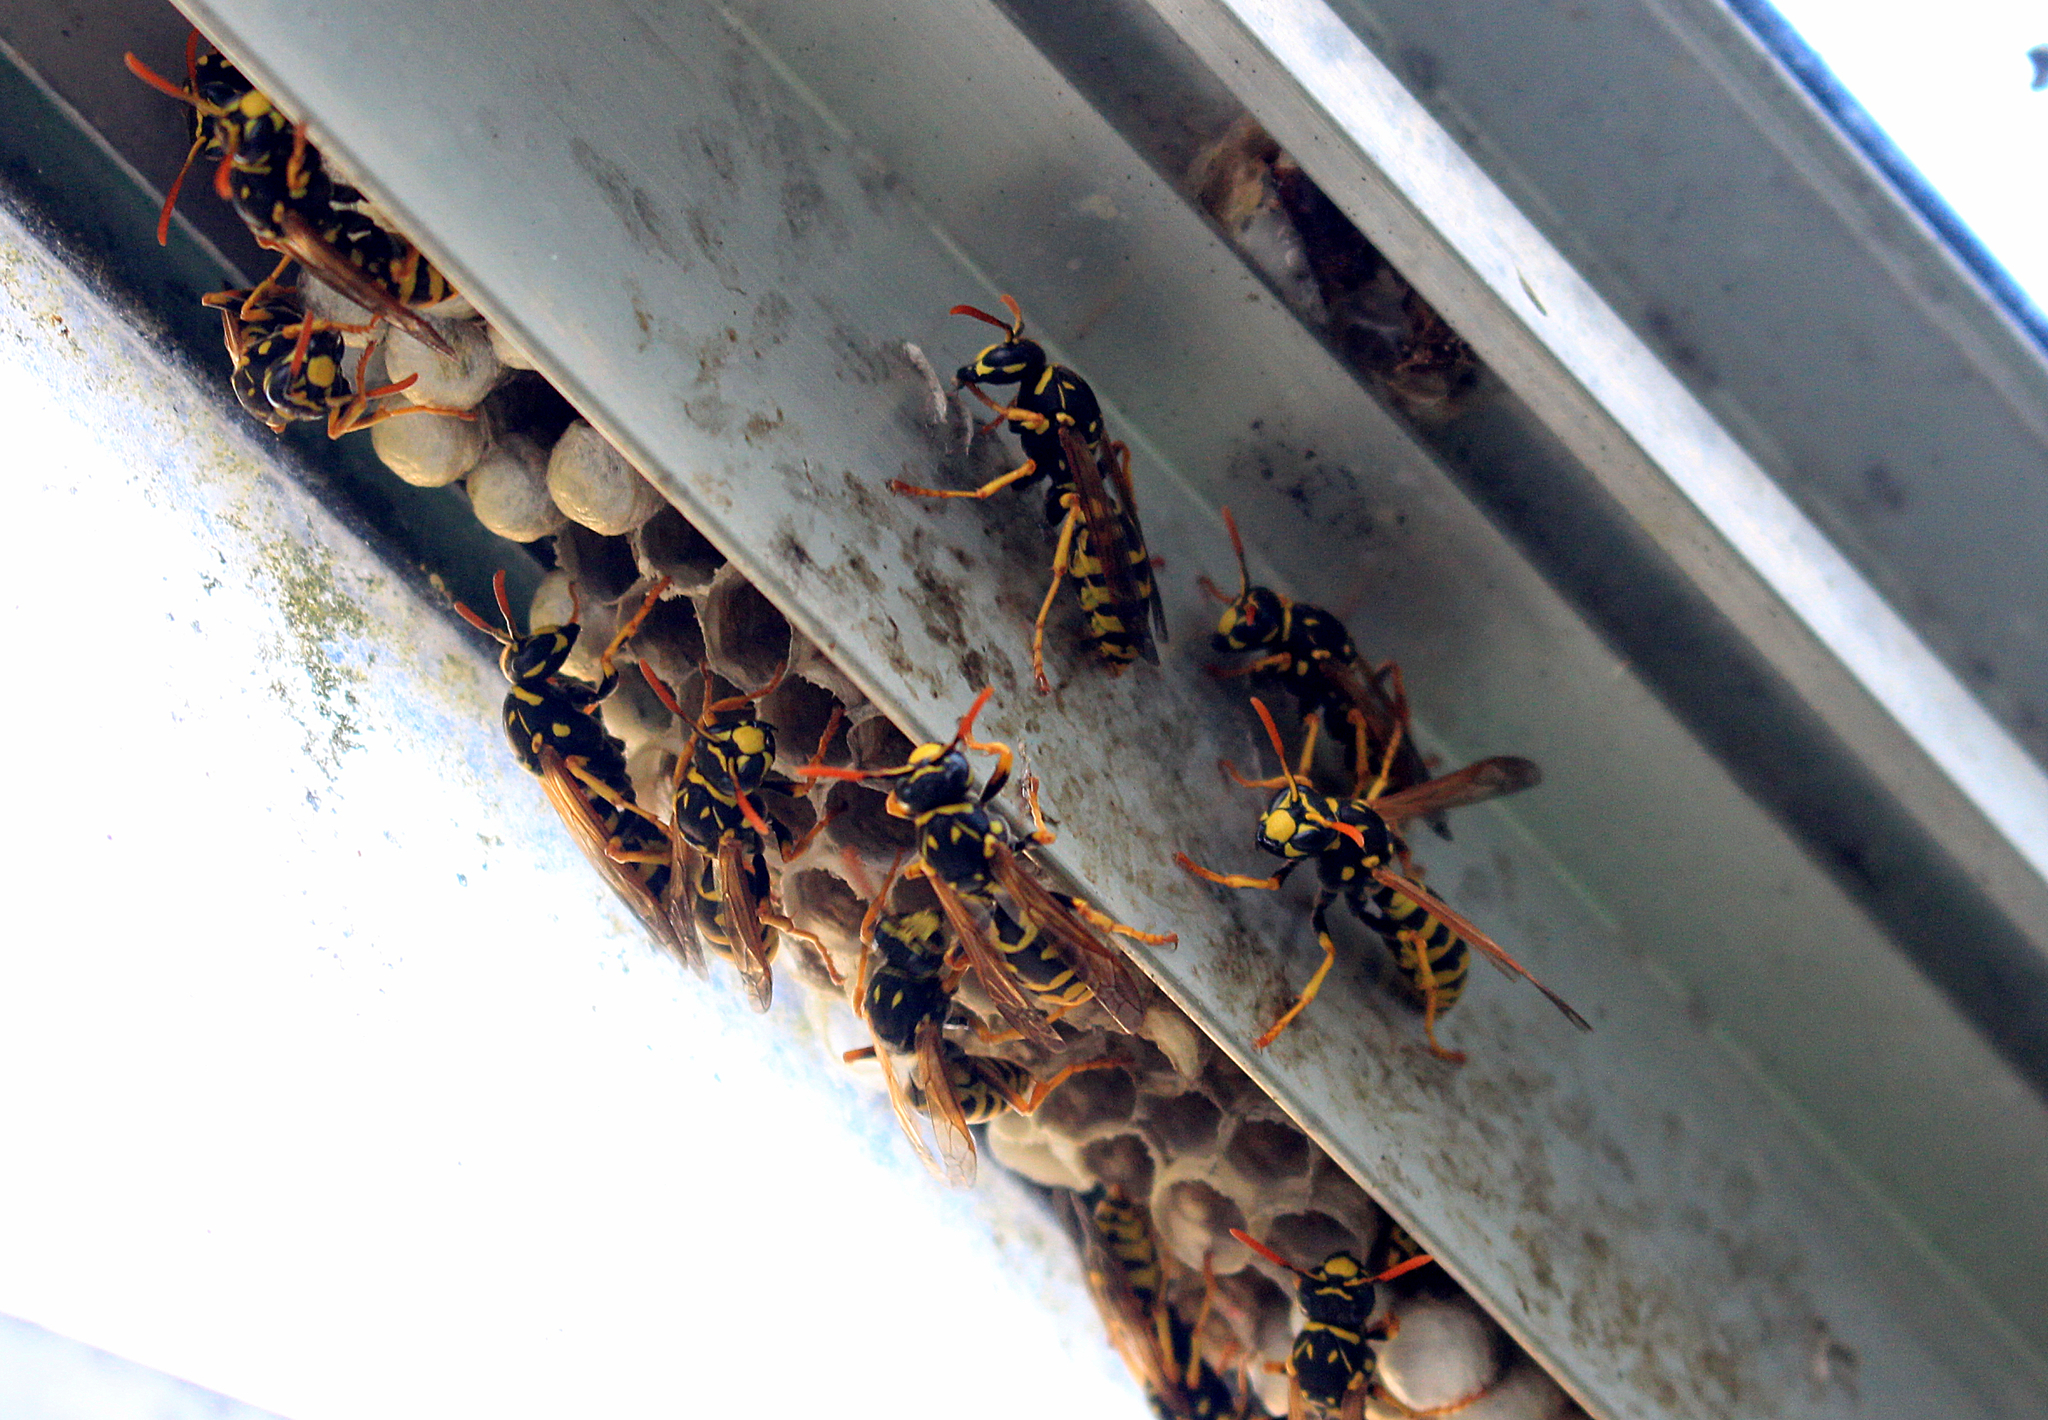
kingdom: Animalia
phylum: Arthropoda
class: Insecta
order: Hymenoptera
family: Eumenidae
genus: Polistes
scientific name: Polistes dominula
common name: Paper wasp
